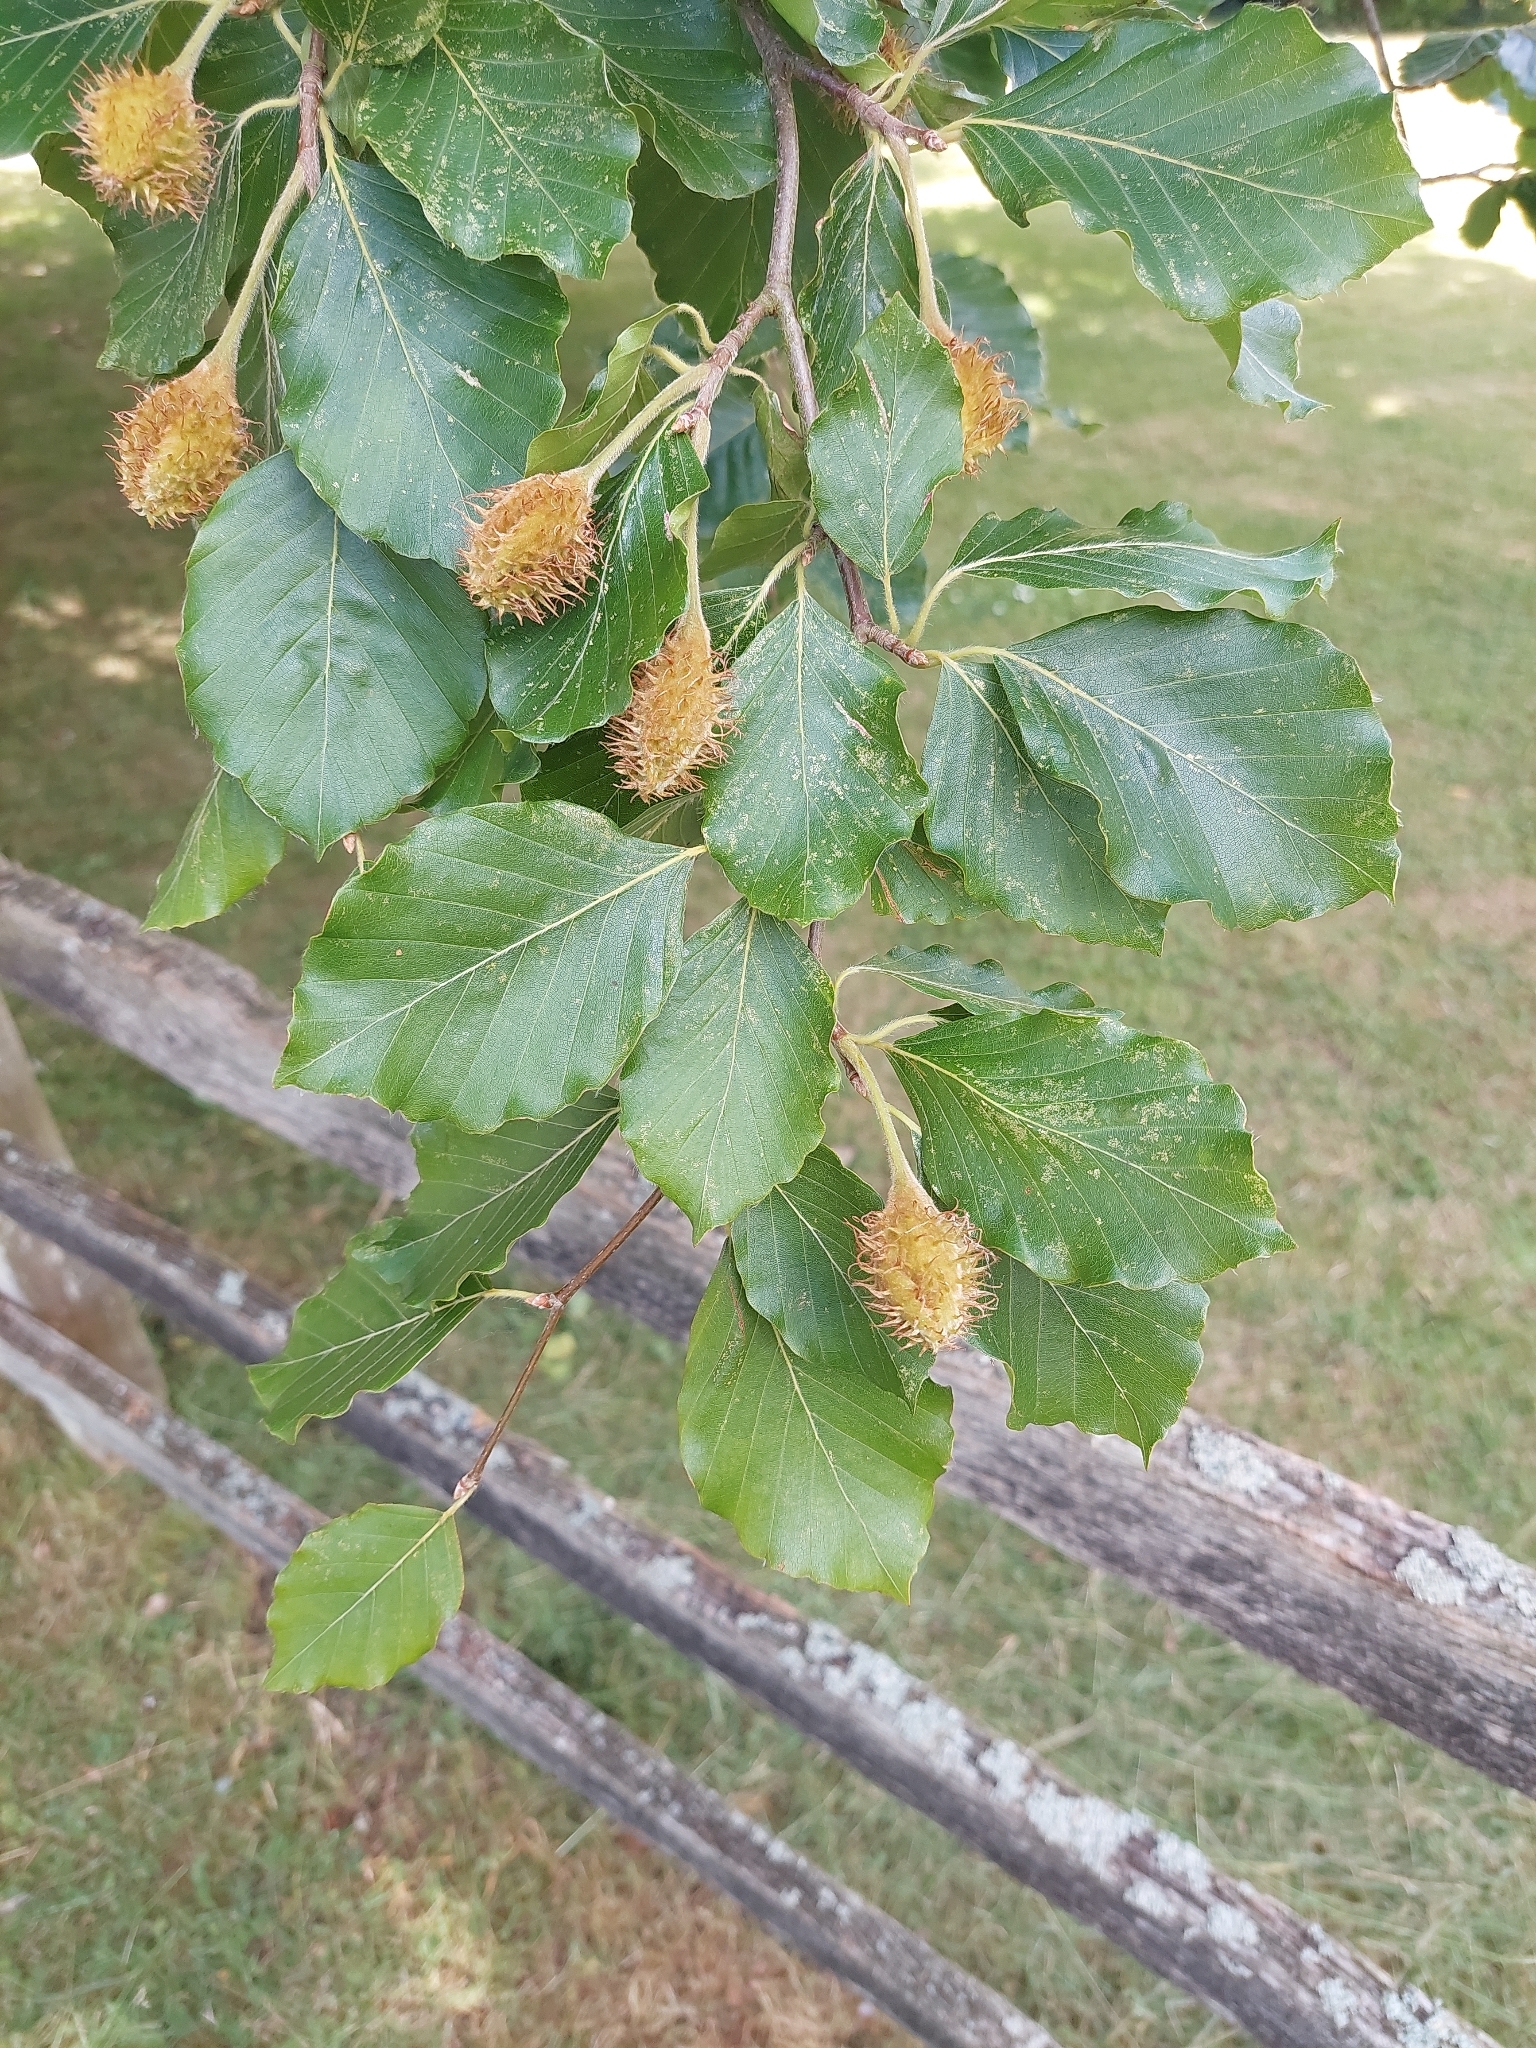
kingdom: Plantae
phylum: Tracheophyta
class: Magnoliopsida
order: Fagales
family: Fagaceae
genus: Fagus
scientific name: Fagus sylvatica
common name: Beech
